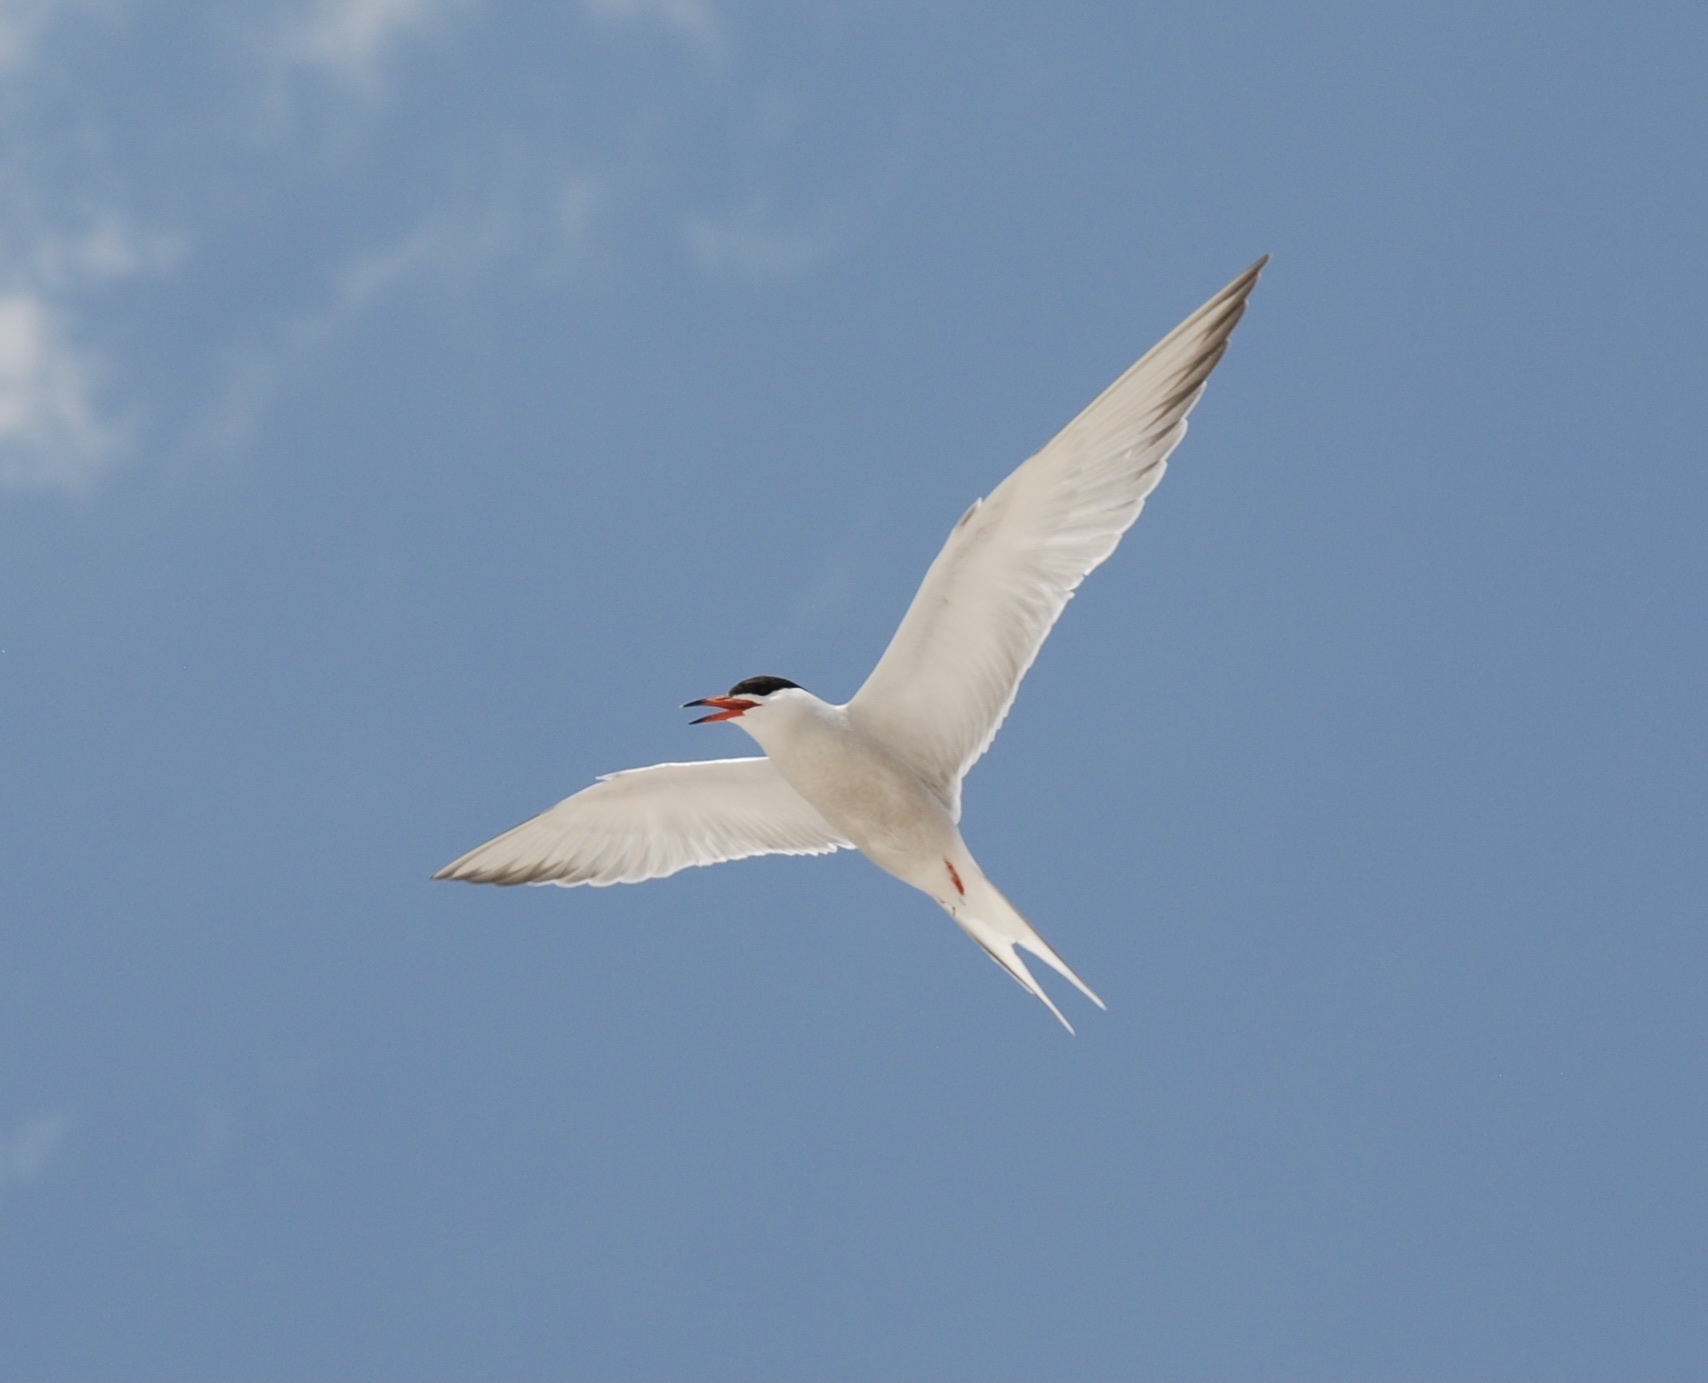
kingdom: Animalia
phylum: Chordata
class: Aves
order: Charadriiformes
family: Laridae
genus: Sterna
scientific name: Sterna hirundo
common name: Common tern
